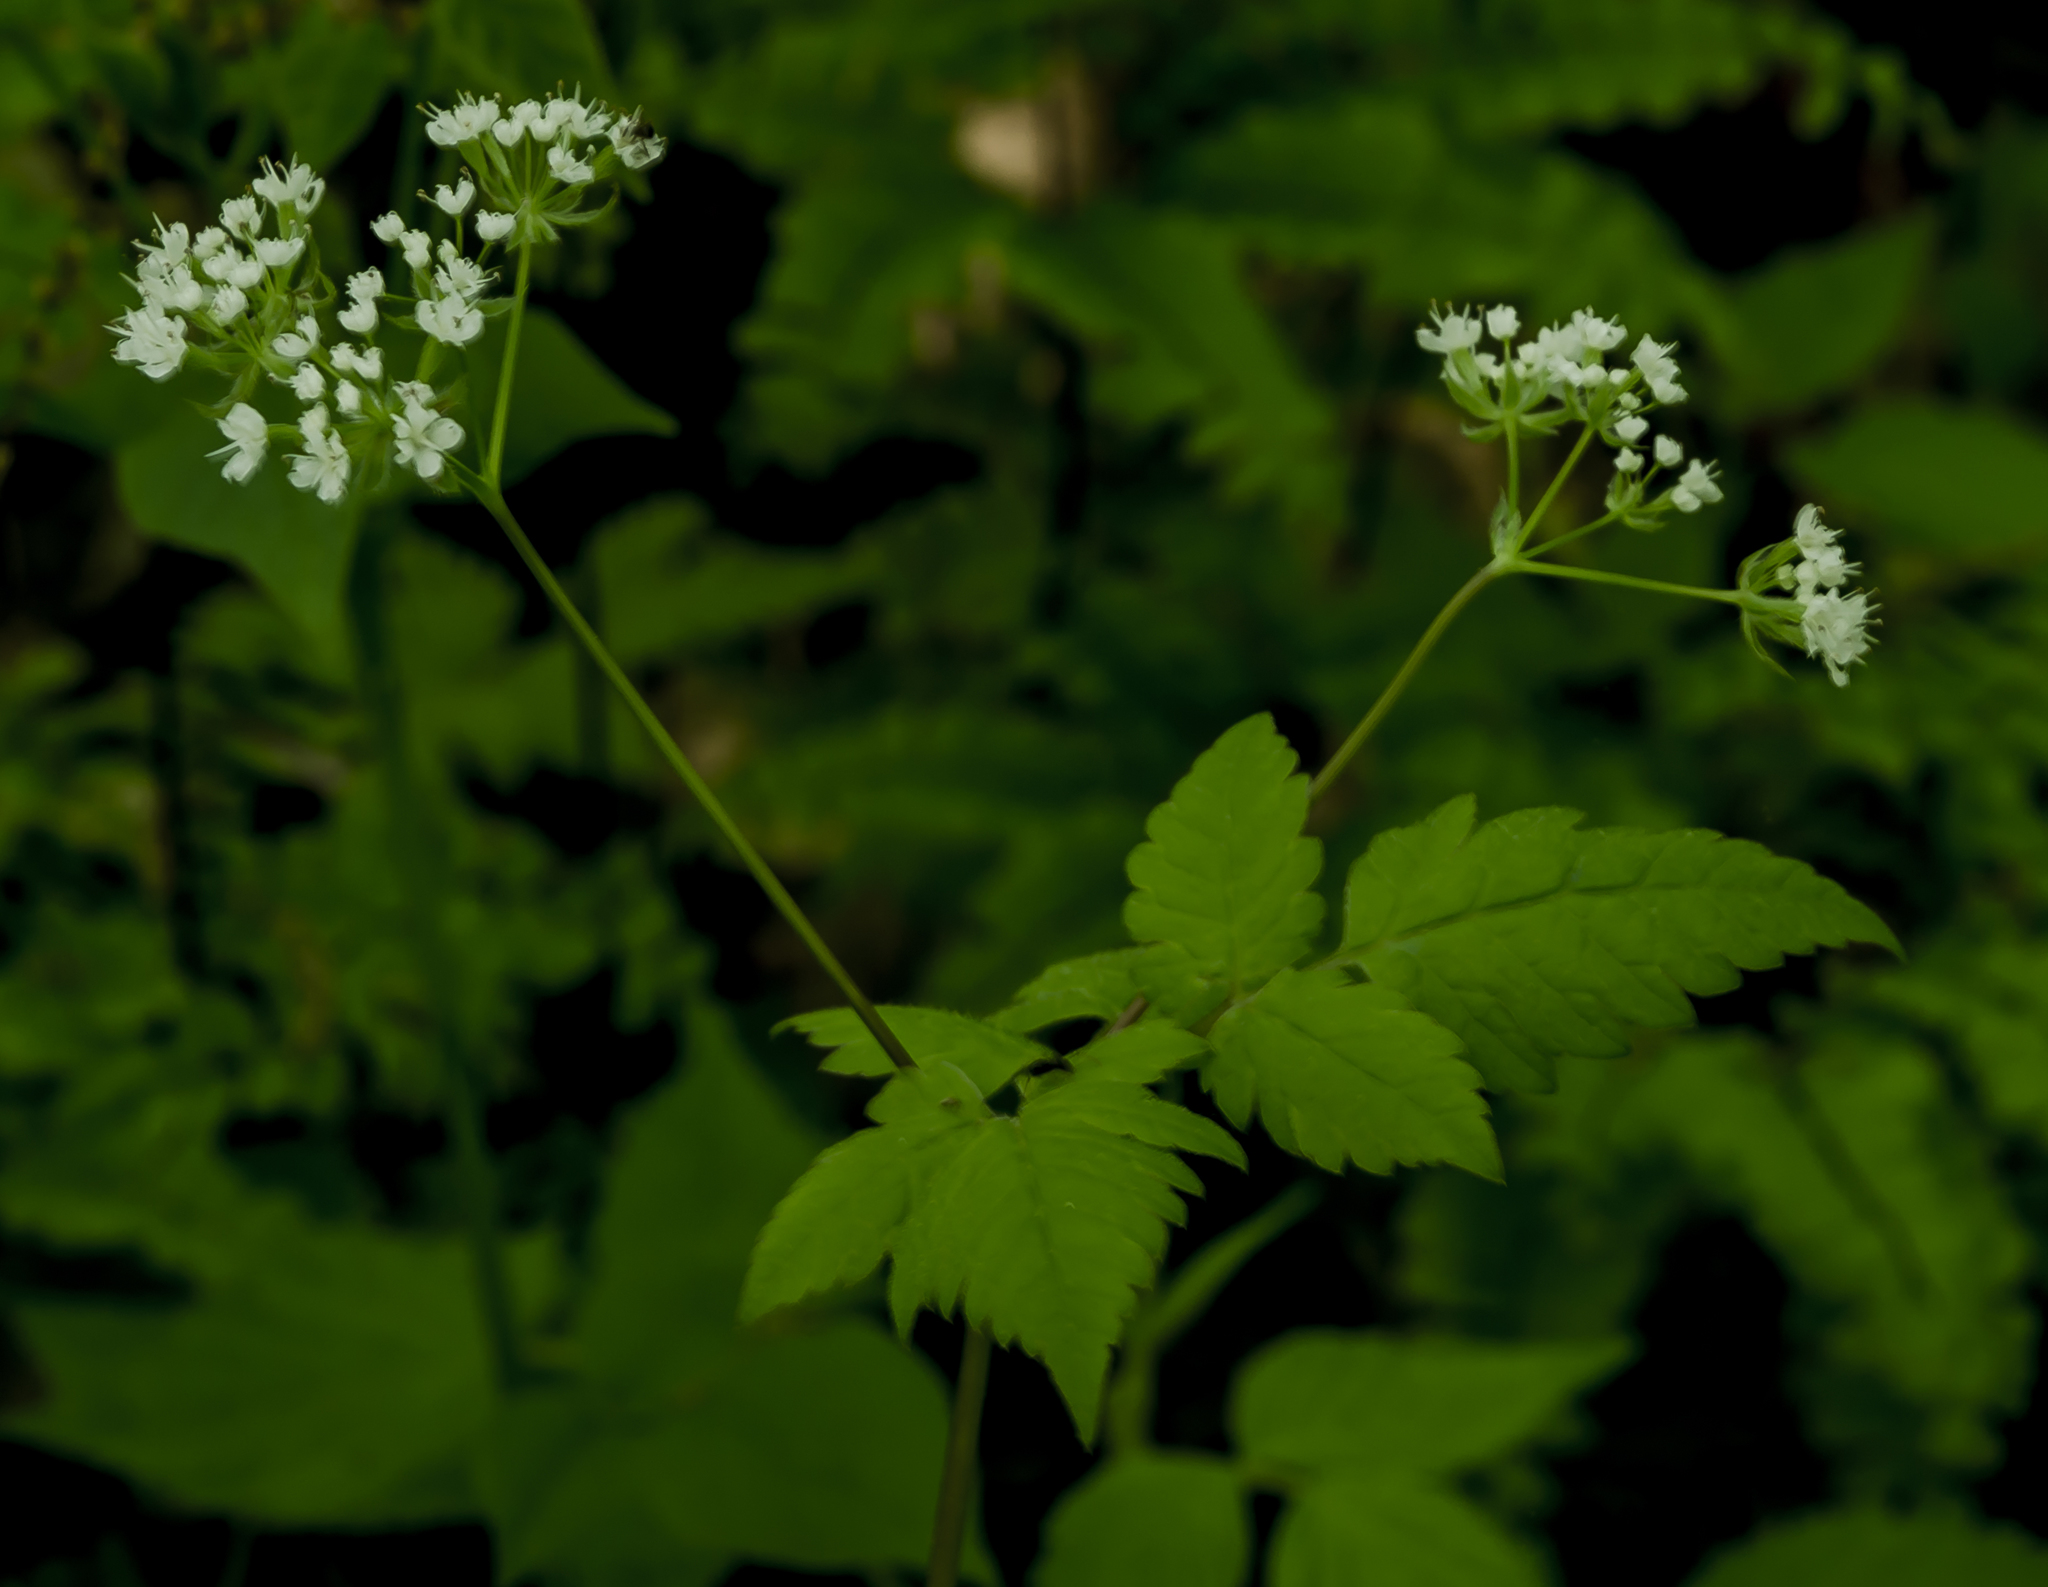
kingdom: Plantae
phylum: Tracheophyta
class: Magnoliopsida
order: Apiales
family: Apiaceae
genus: Osmorhiza
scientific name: Osmorhiza longistylis
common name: Smooth sweet cicely
